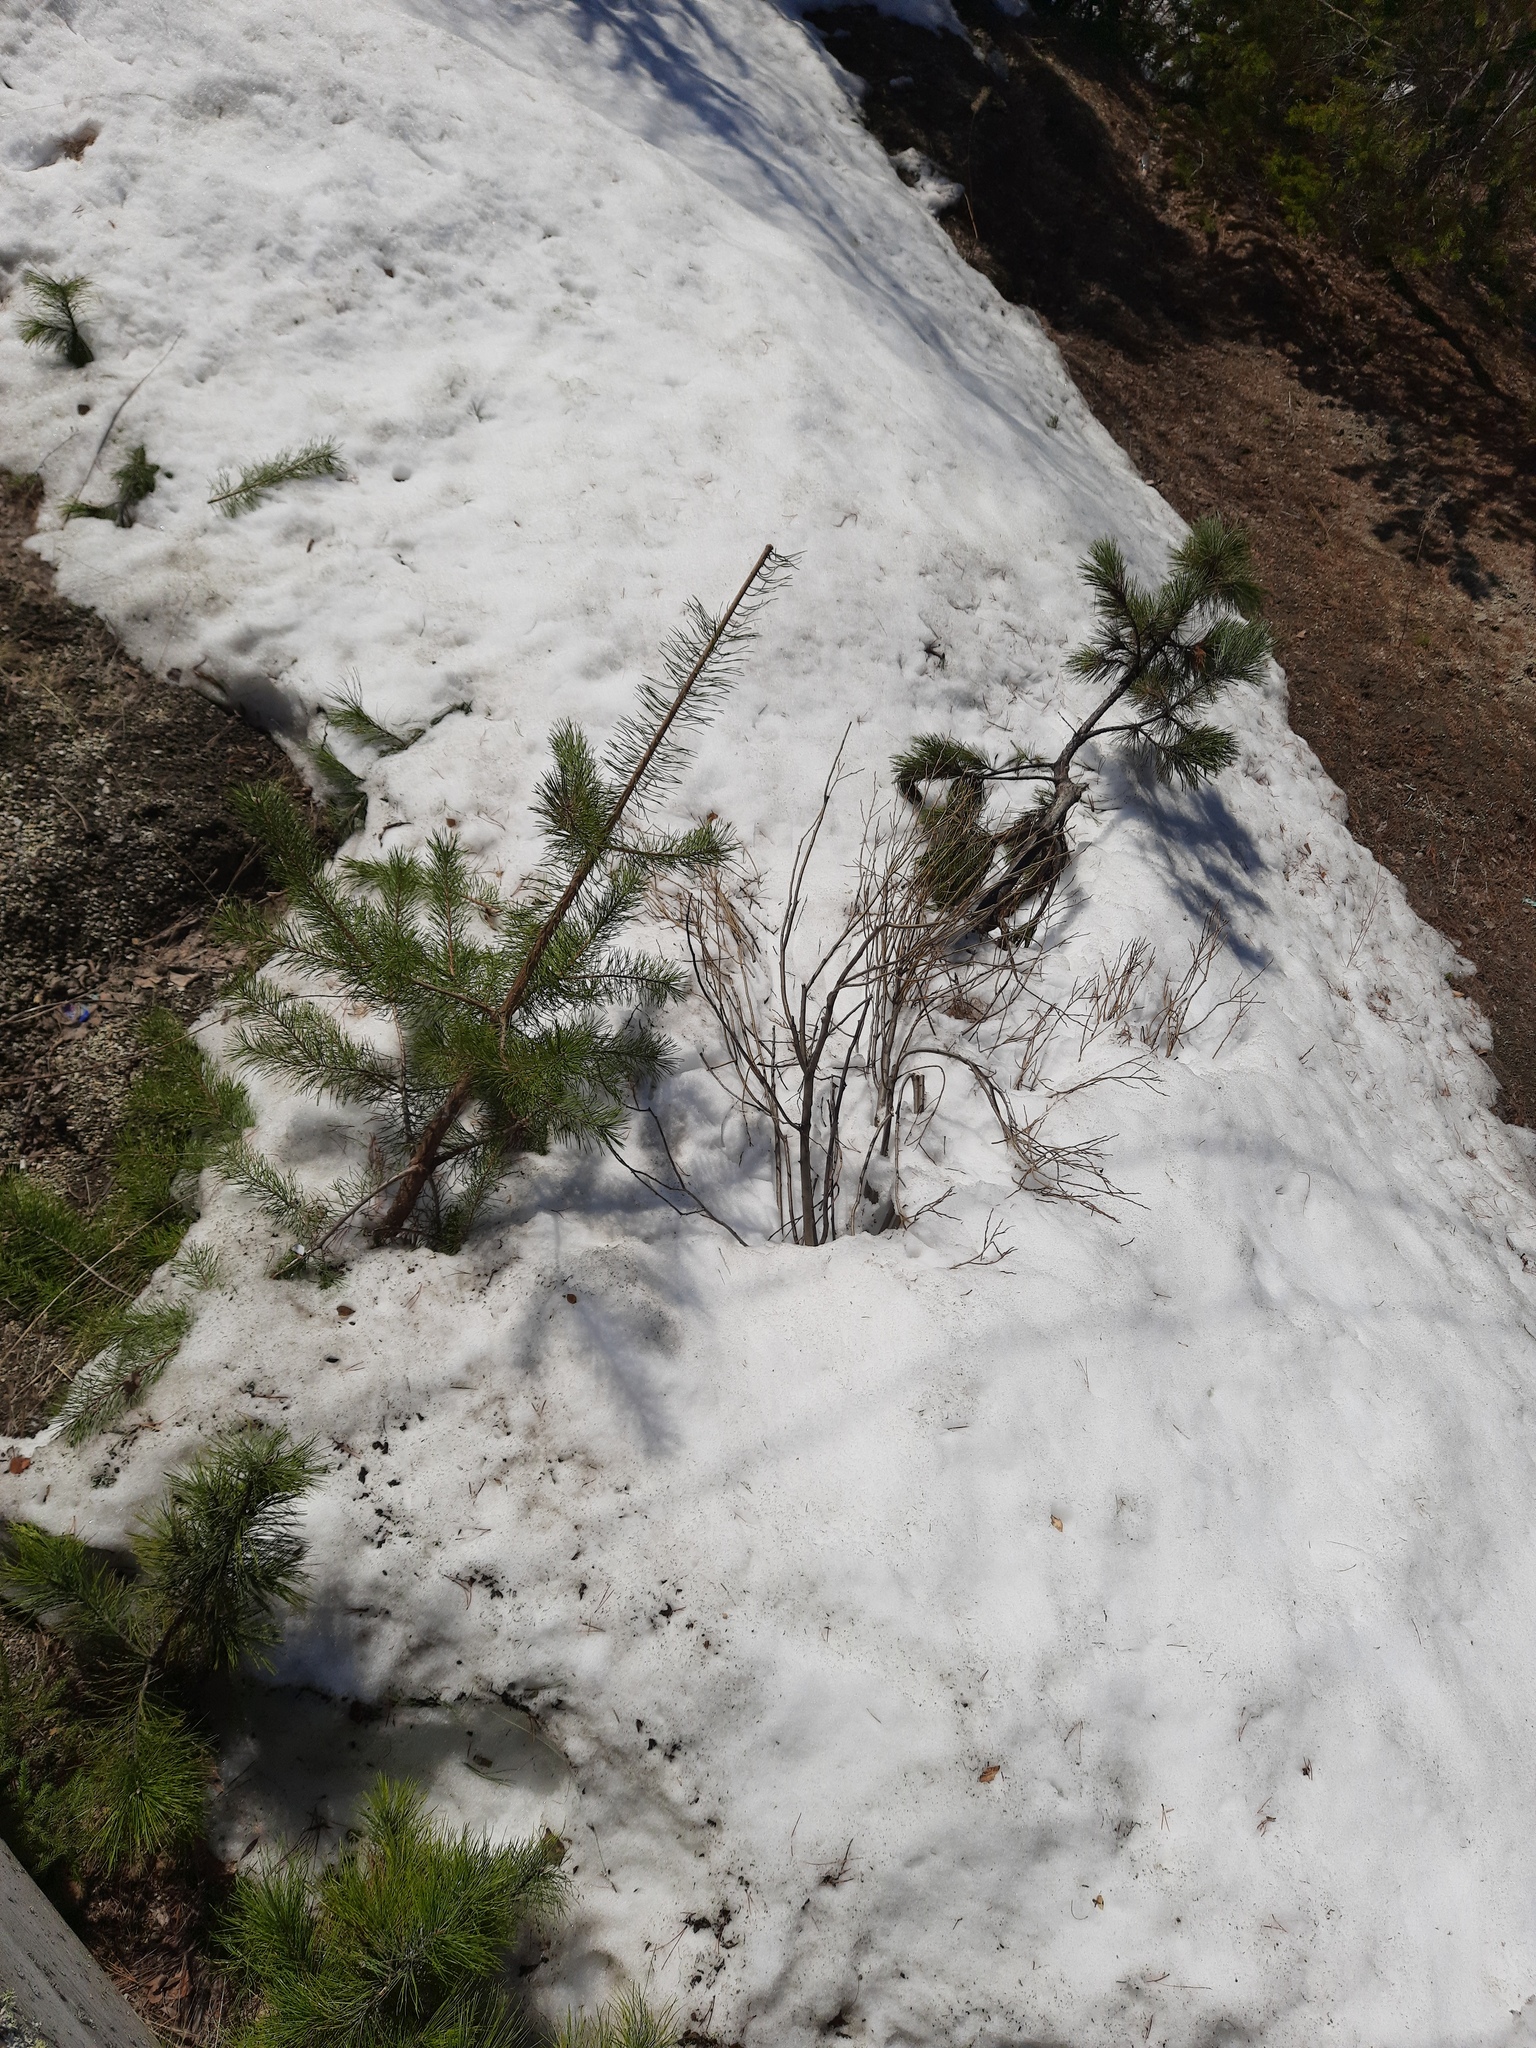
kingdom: Plantae
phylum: Tracheophyta
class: Pinopsida
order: Pinales
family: Pinaceae
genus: Pinus
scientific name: Pinus sylvestris
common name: Scots pine
